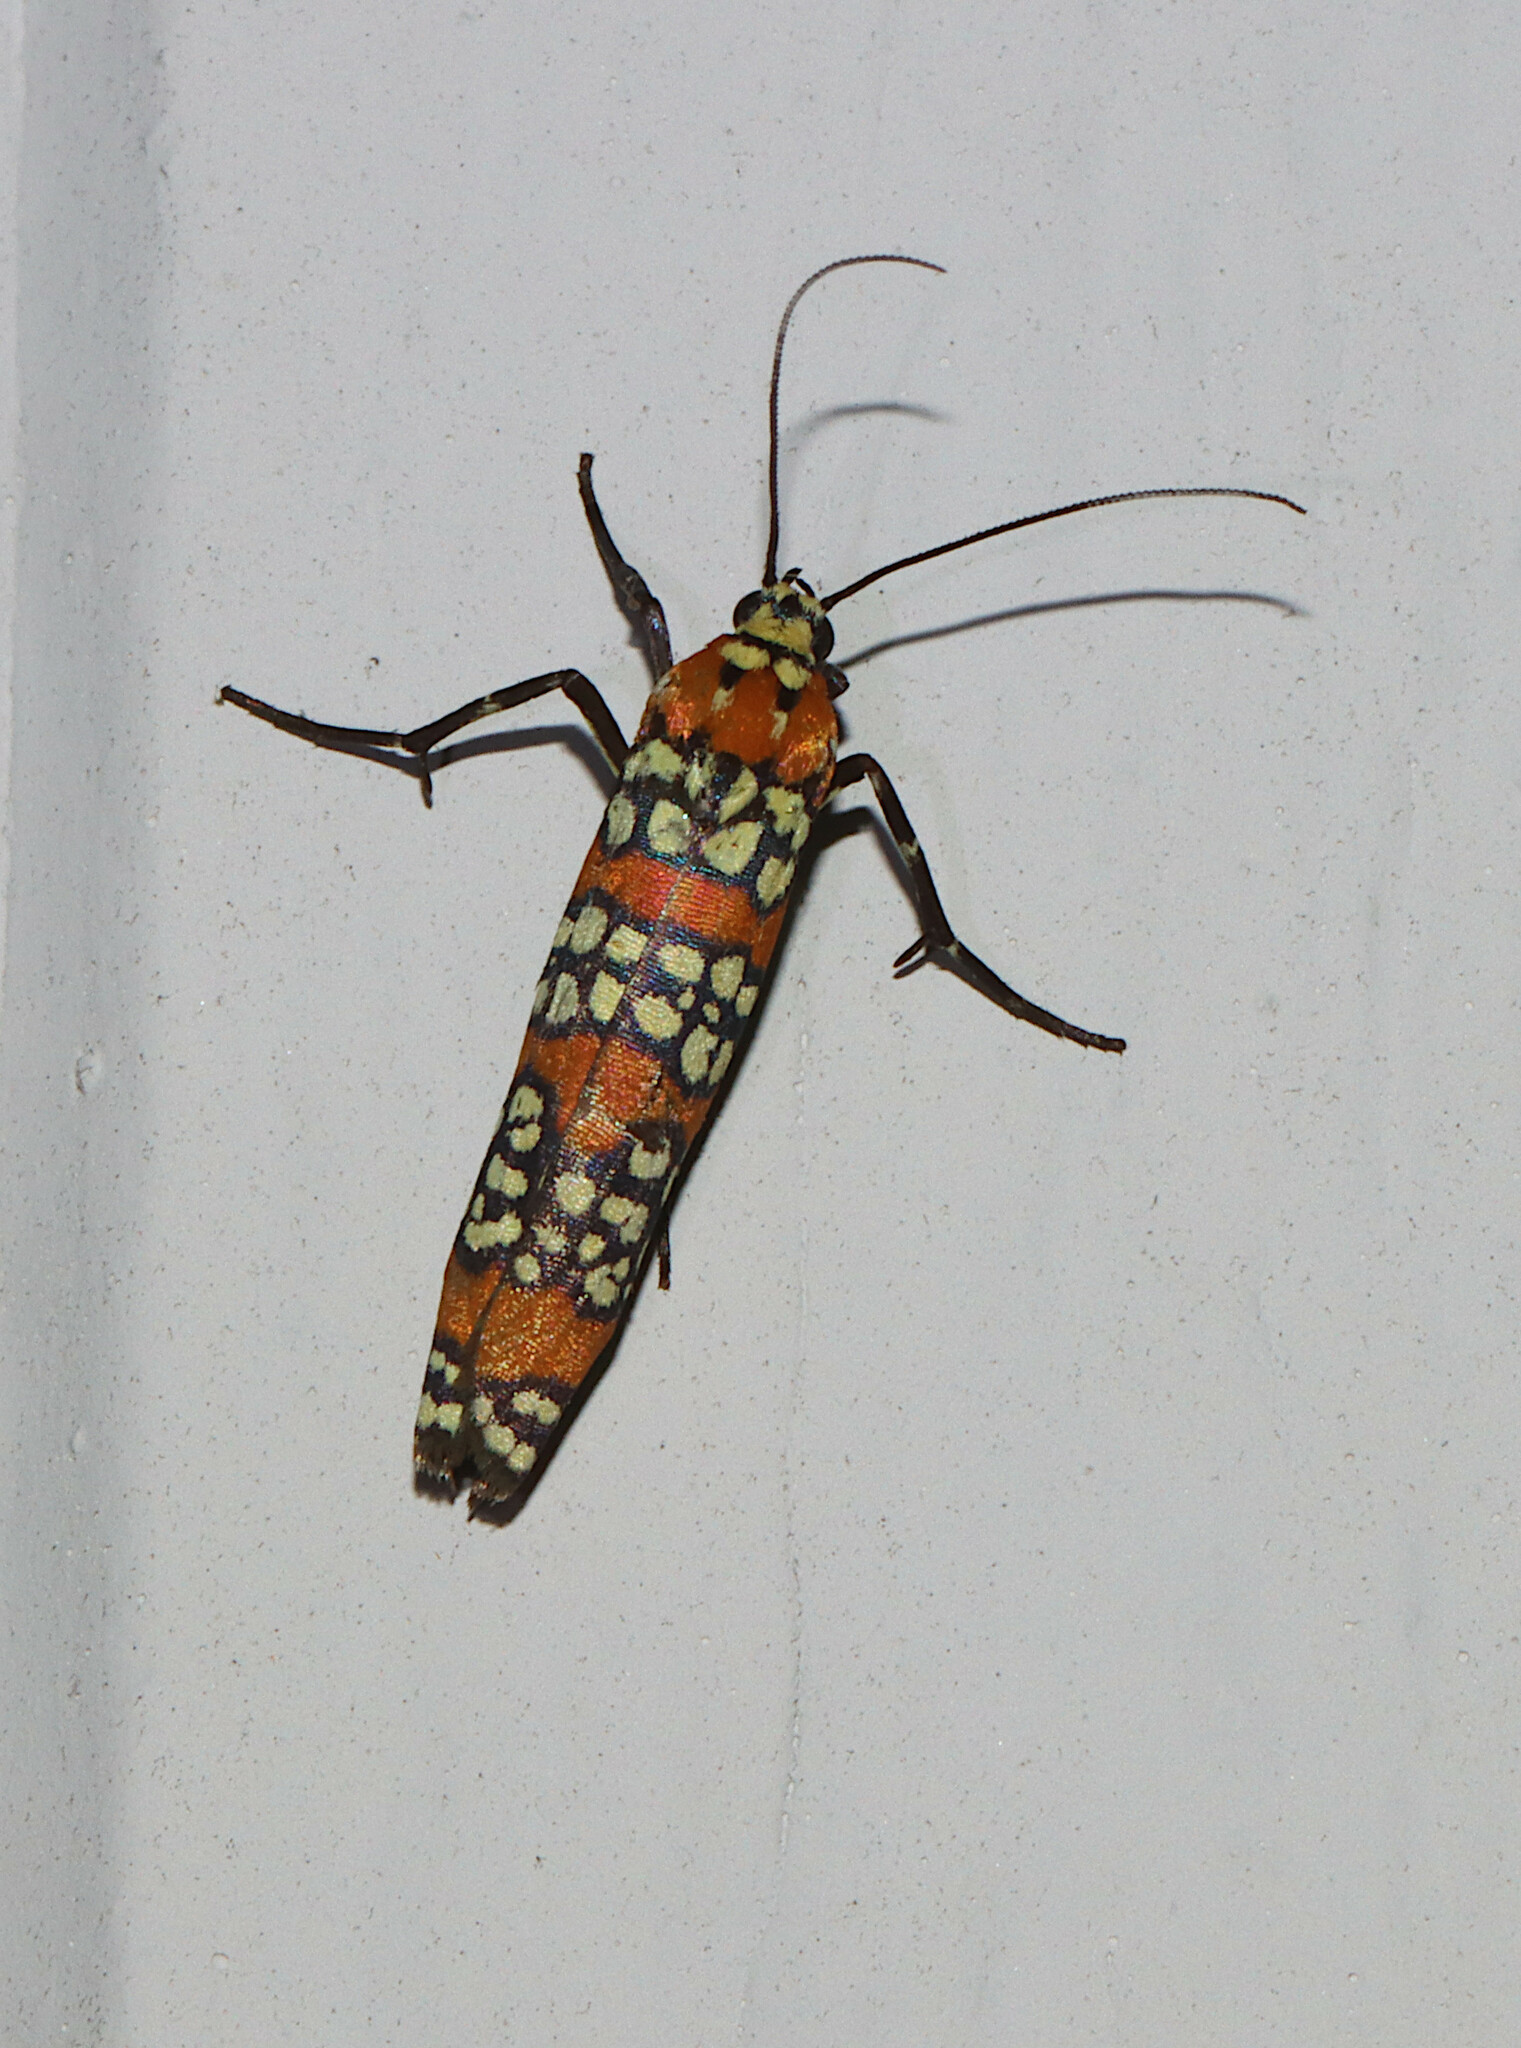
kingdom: Animalia
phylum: Arthropoda
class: Insecta
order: Lepidoptera
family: Attevidae
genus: Atteva
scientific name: Atteva punctella
